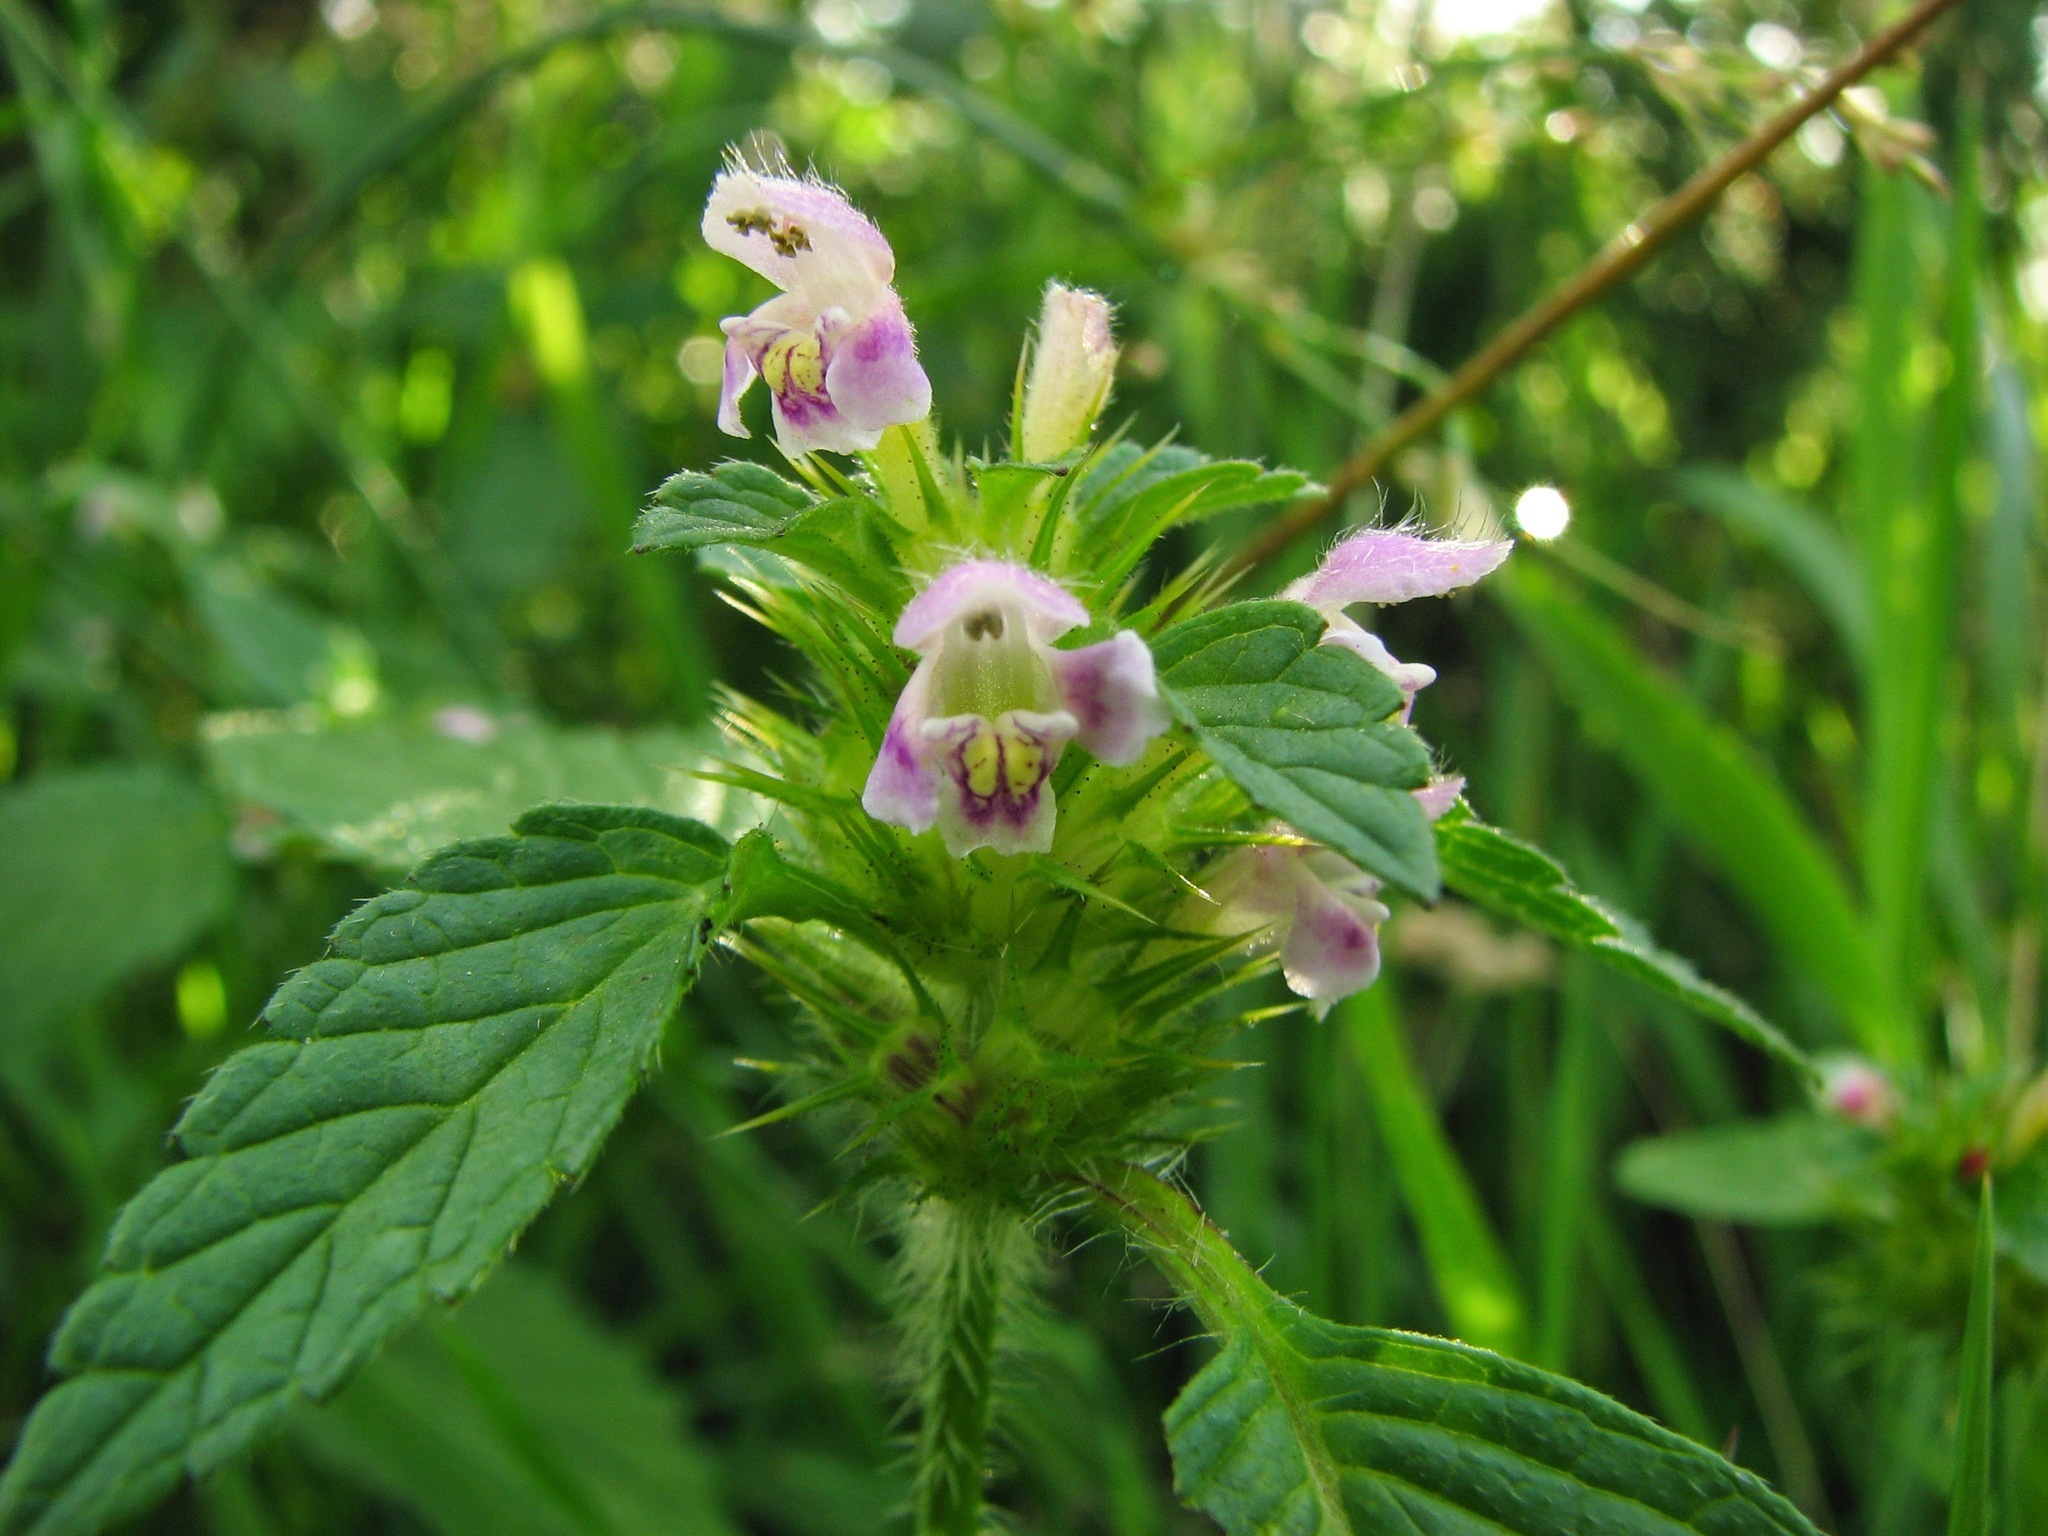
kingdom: Plantae
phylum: Tracheophyta
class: Magnoliopsida
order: Lamiales
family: Lamiaceae
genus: Galeopsis
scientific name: Galeopsis tetrahit
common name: Common hemp-nettle
